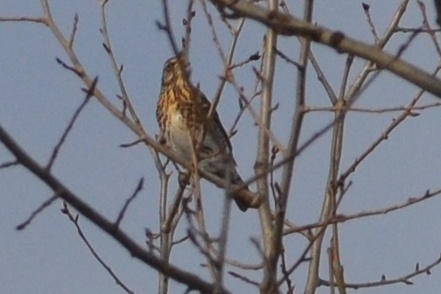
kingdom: Animalia
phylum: Chordata
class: Aves
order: Passeriformes
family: Turdidae
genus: Turdus
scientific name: Turdus pilaris
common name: Fieldfare
